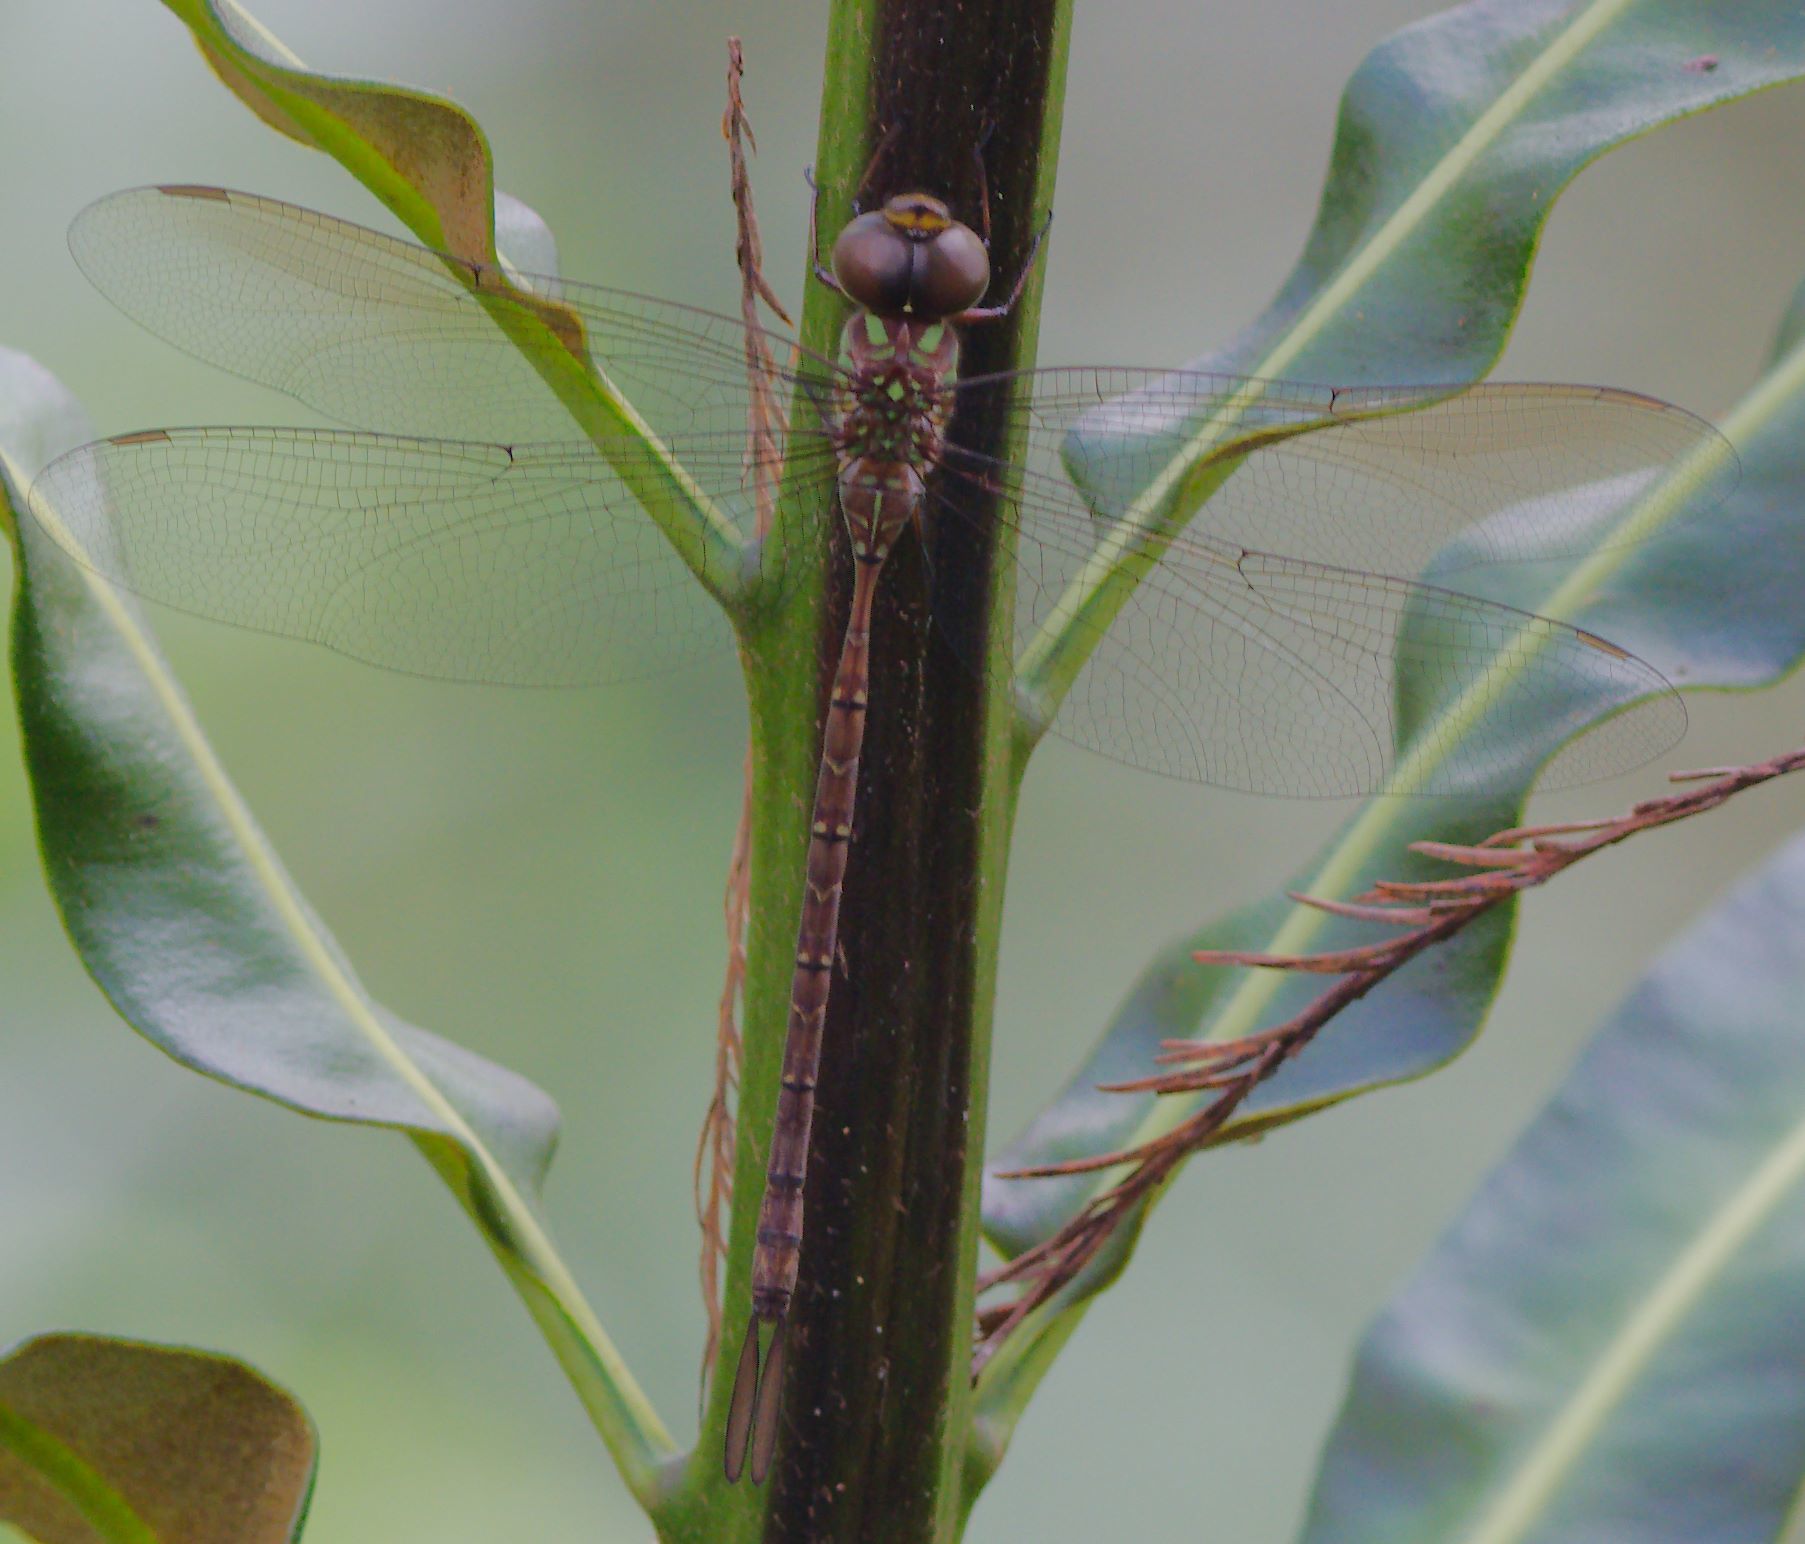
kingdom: Animalia
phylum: Arthropoda
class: Insecta
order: Odonata
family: Aeshnidae
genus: Triacanthagyna
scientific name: Triacanthagyna trifida
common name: Phantom darner
